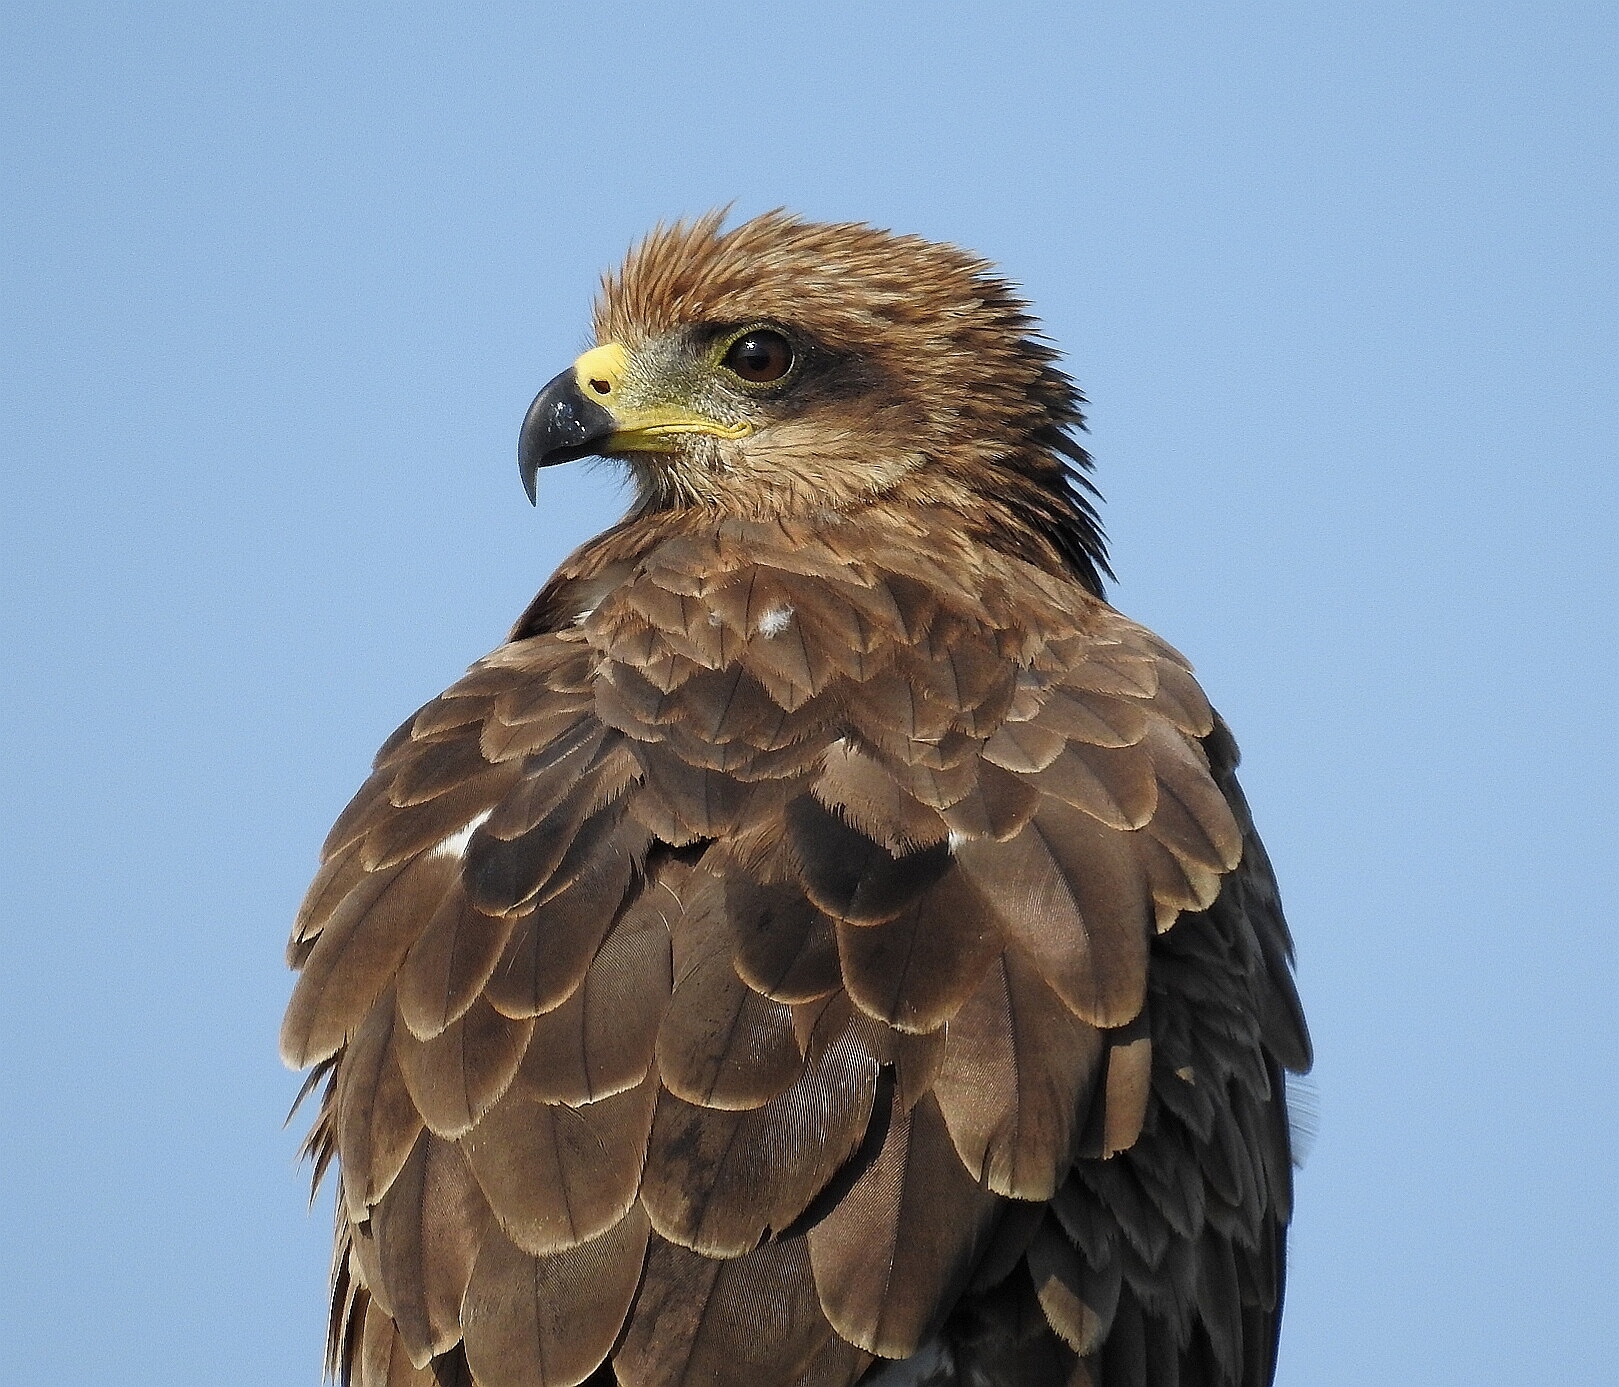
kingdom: Animalia
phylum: Chordata
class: Aves
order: Accipitriformes
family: Accipitridae
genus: Milvus
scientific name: Milvus migrans
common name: Black kite
